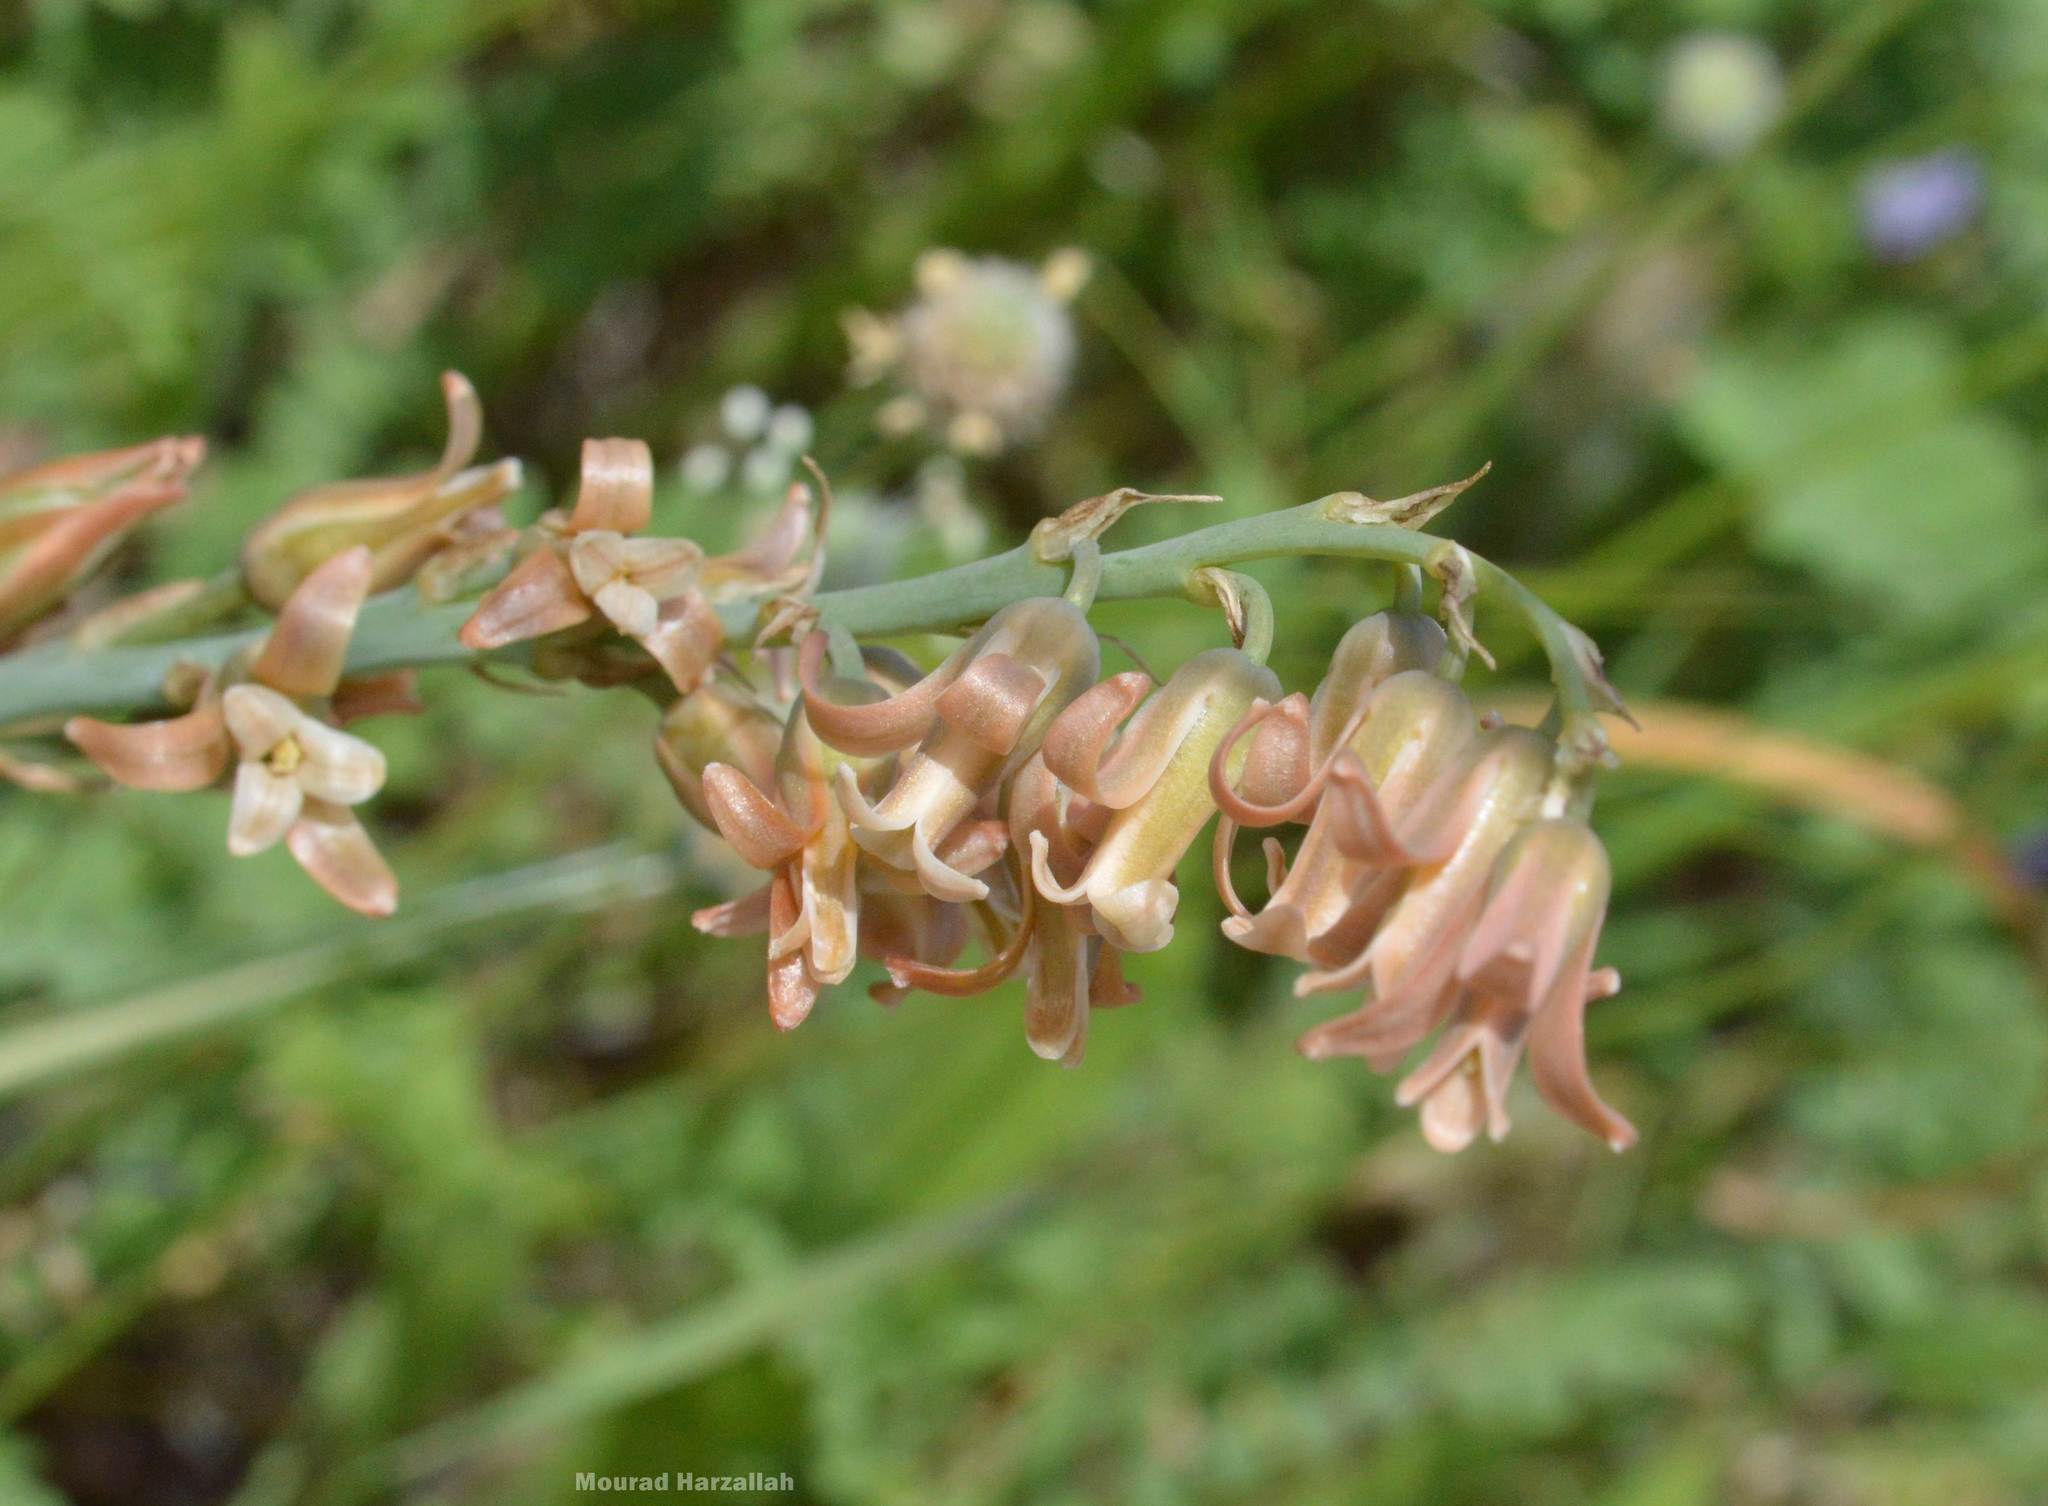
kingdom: Plantae
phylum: Tracheophyta
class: Liliopsida
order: Asparagales
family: Asparagaceae
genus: Dipcadi
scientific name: Dipcadi serotinum
